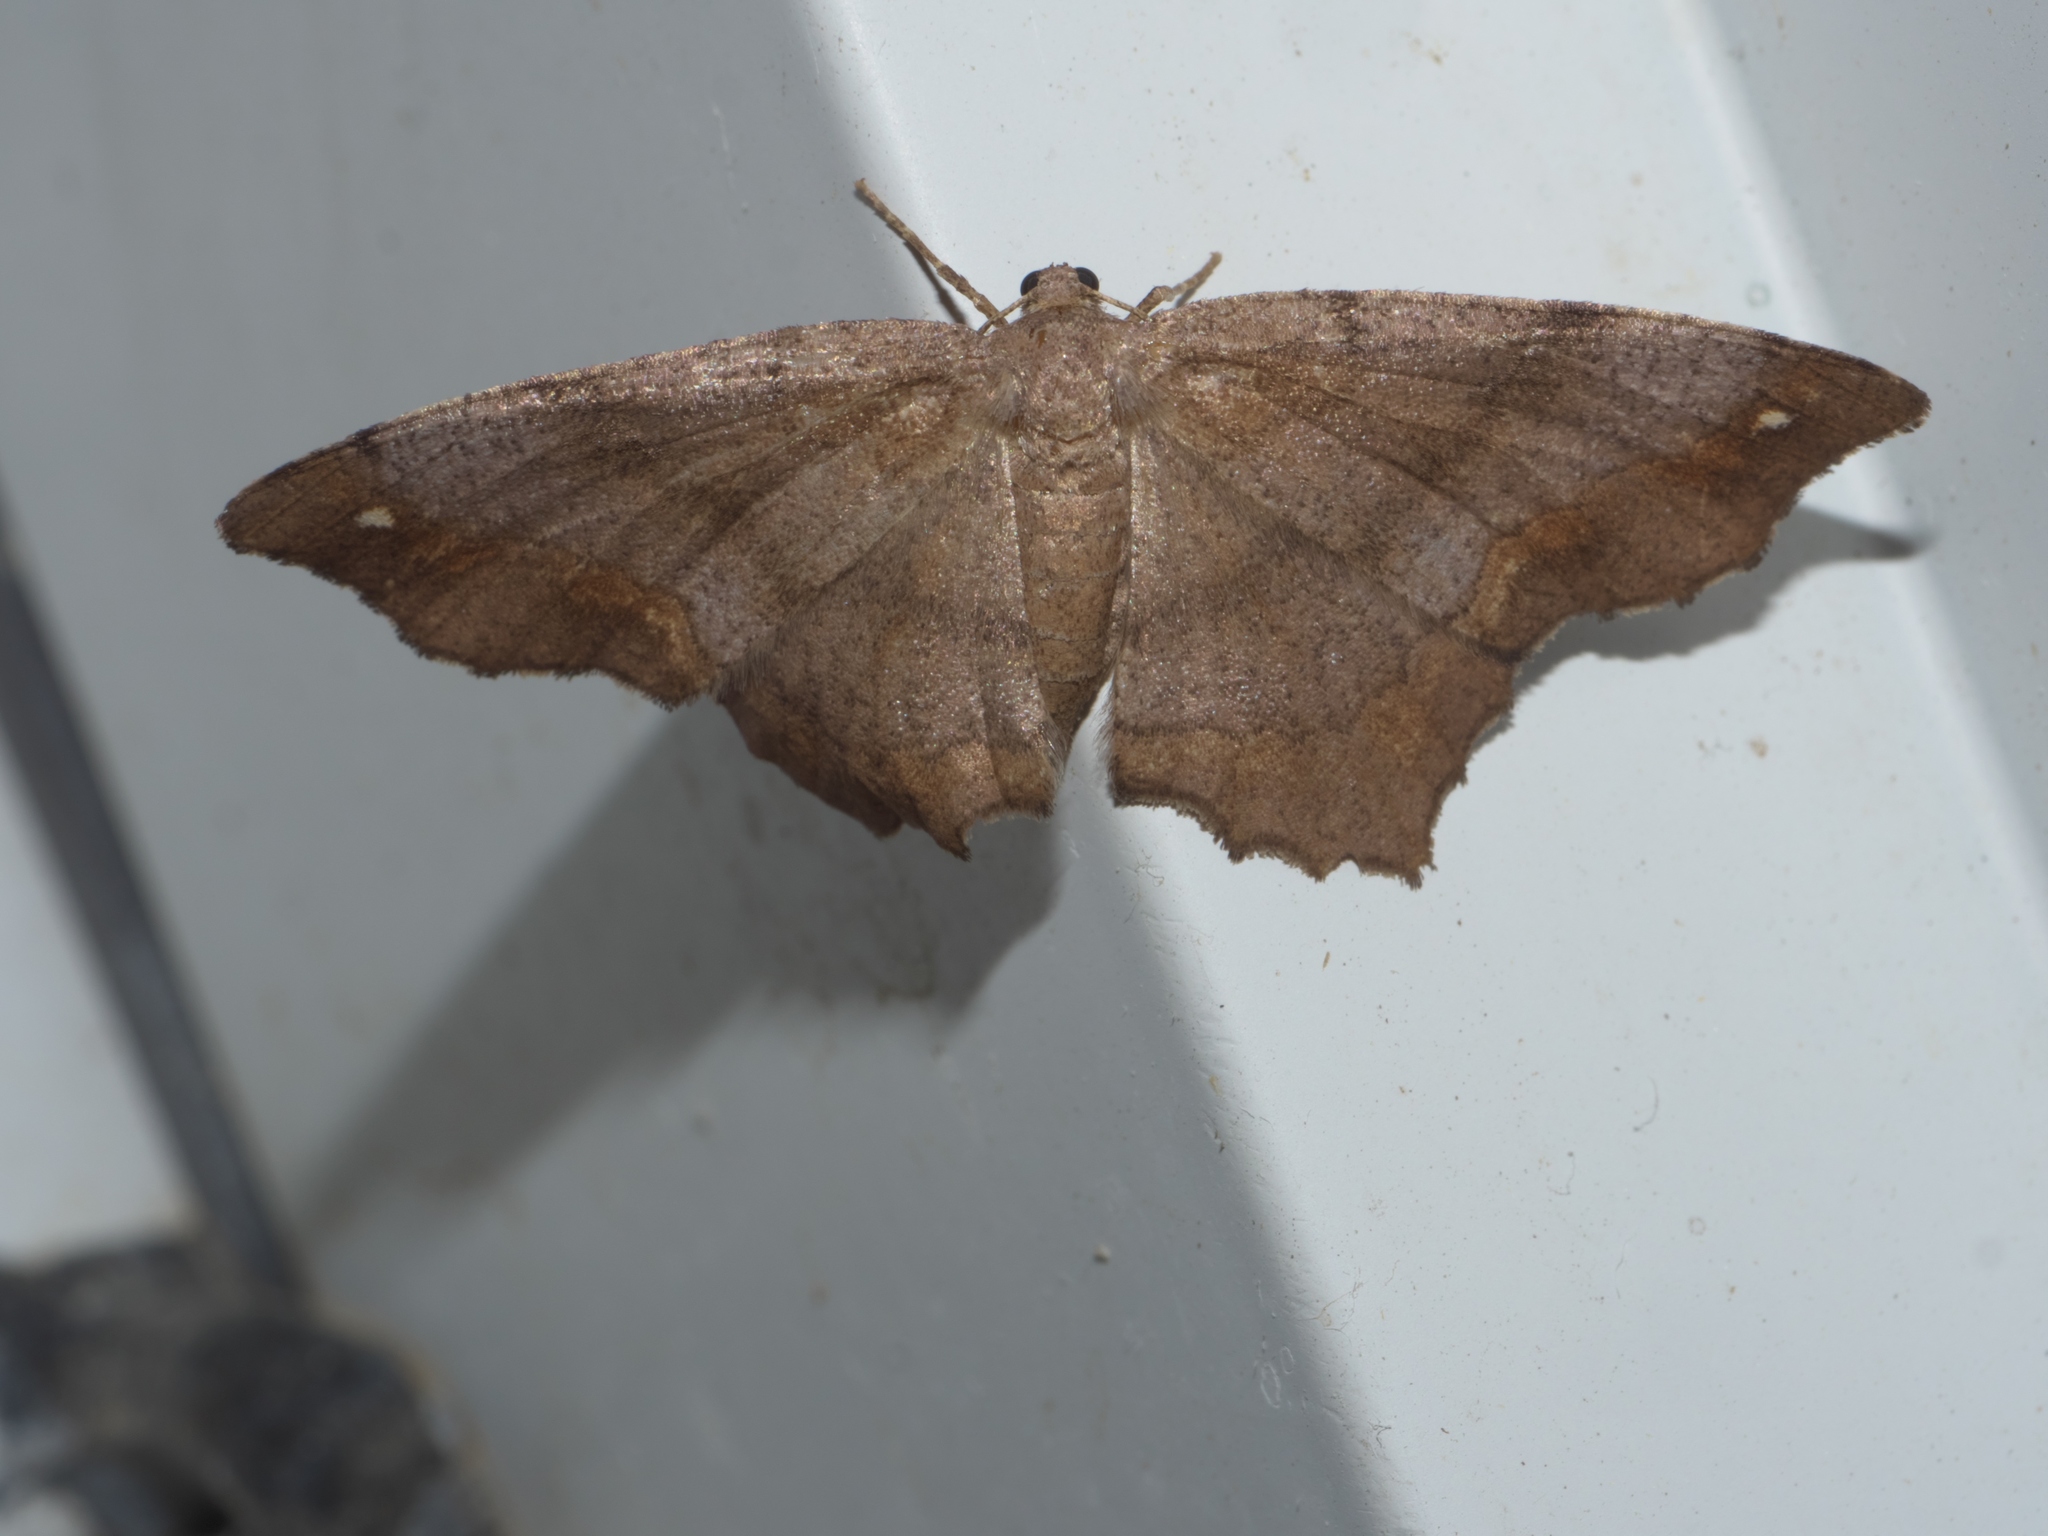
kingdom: Animalia
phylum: Arthropoda
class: Insecta
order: Lepidoptera
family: Geometridae
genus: Hypagyrtis
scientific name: Hypagyrtis esther
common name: Esther moth
